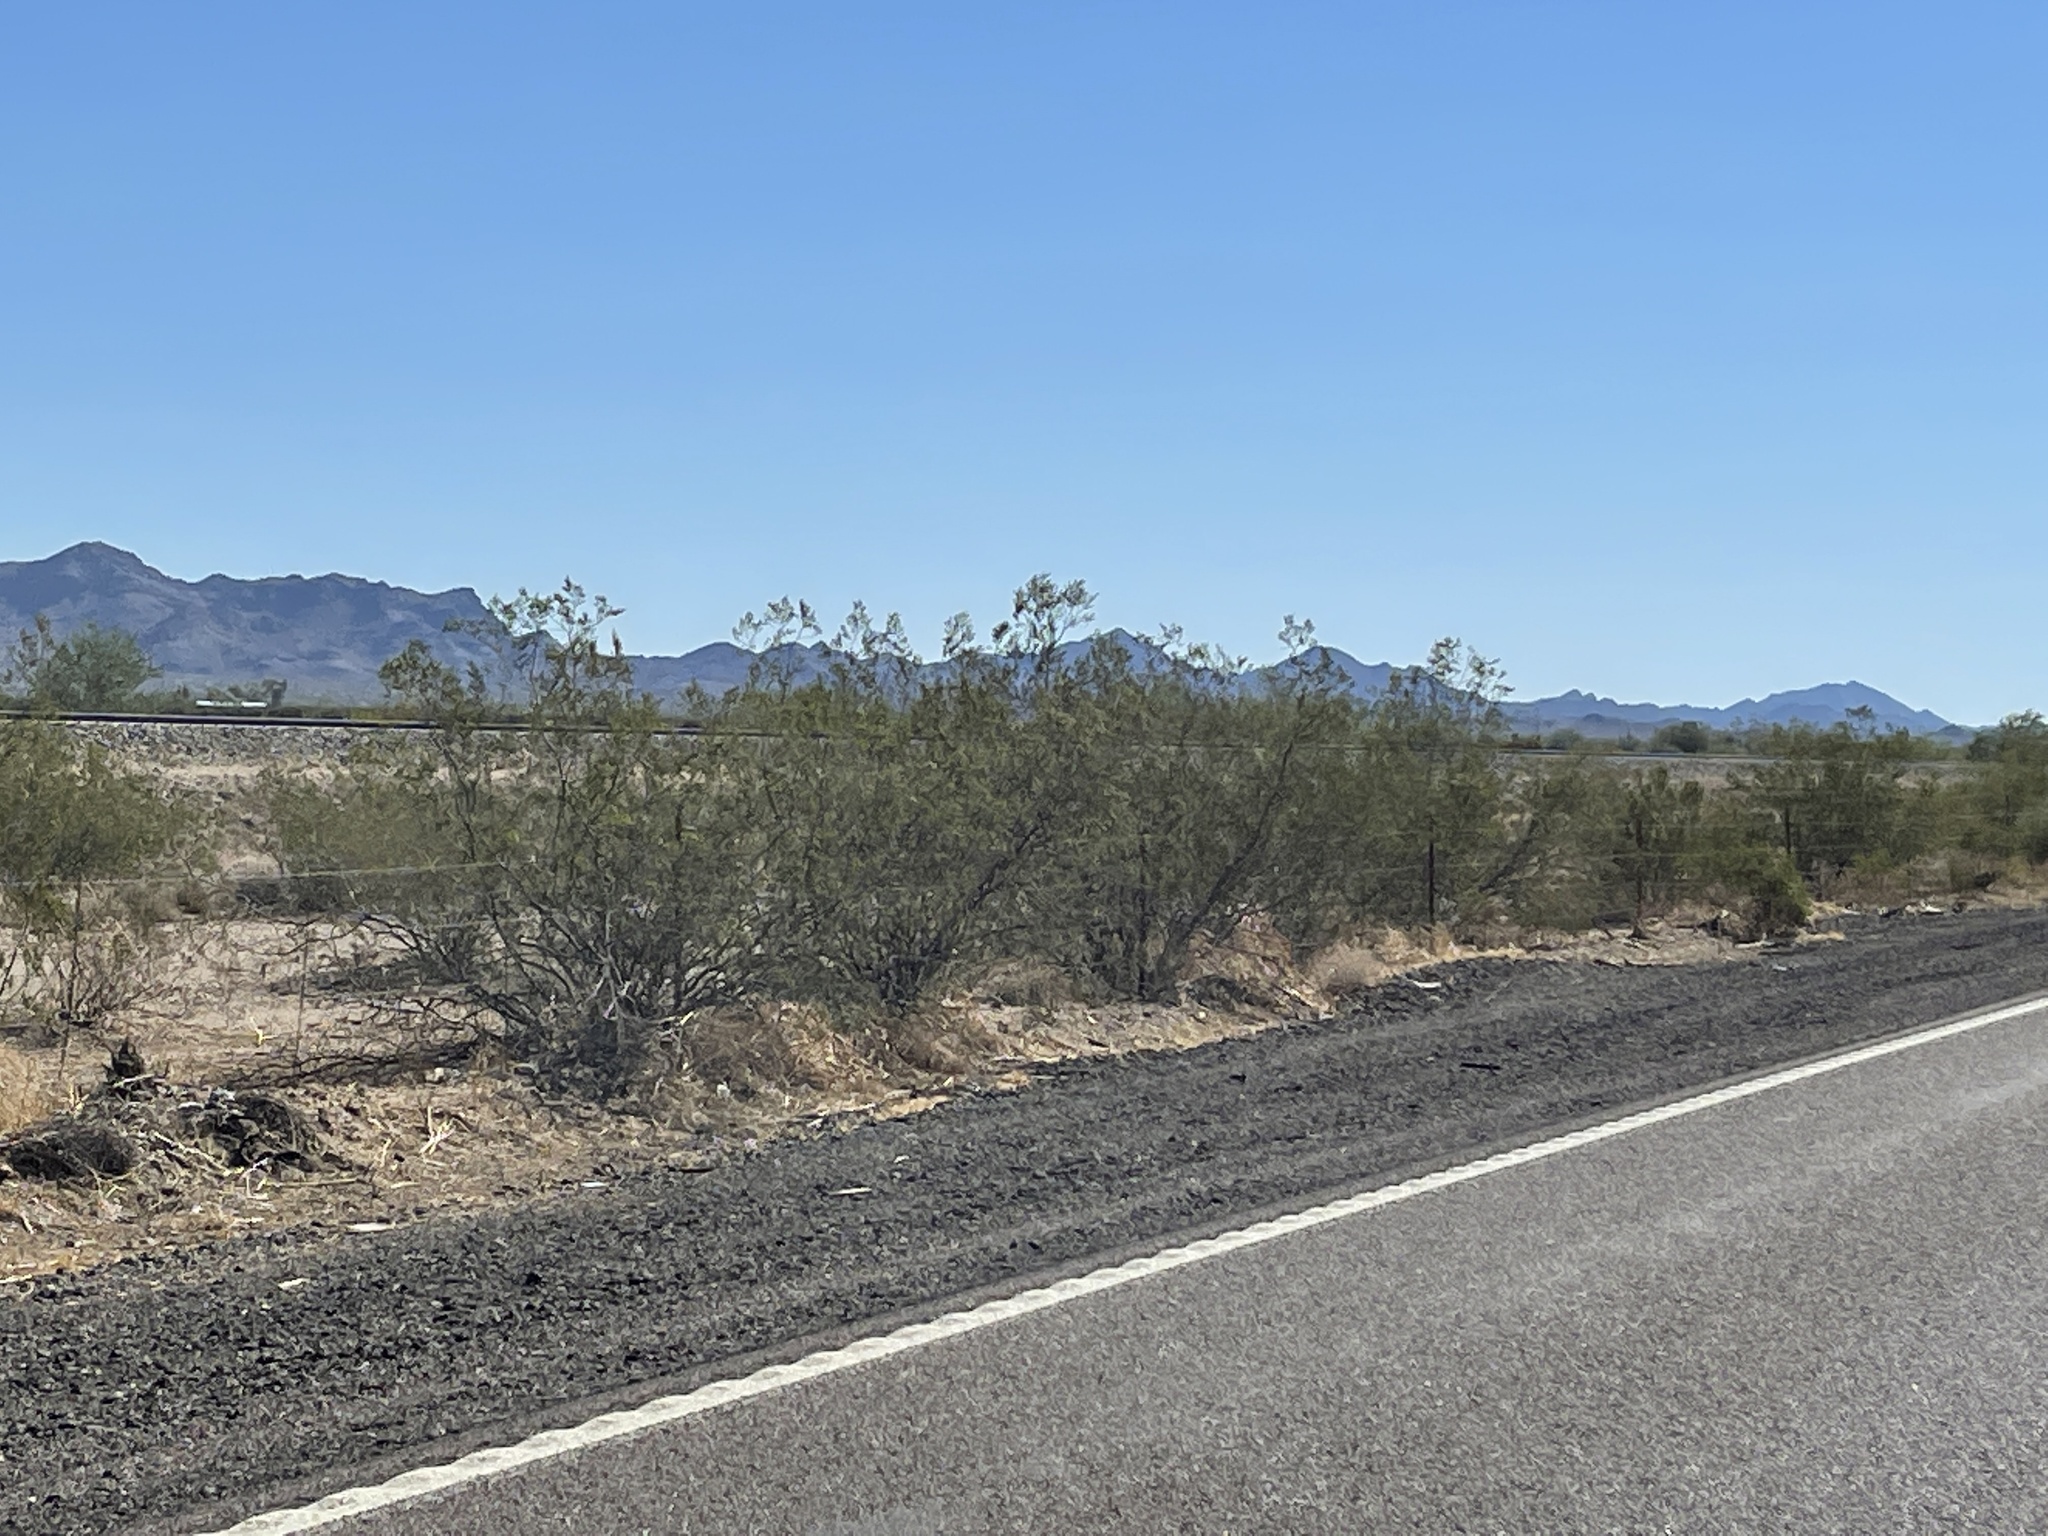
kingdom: Plantae
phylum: Tracheophyta
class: Magnoliopsida
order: Zygophyllales
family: Zygophyllaceae
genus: Larrea
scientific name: Larrea tridentata
